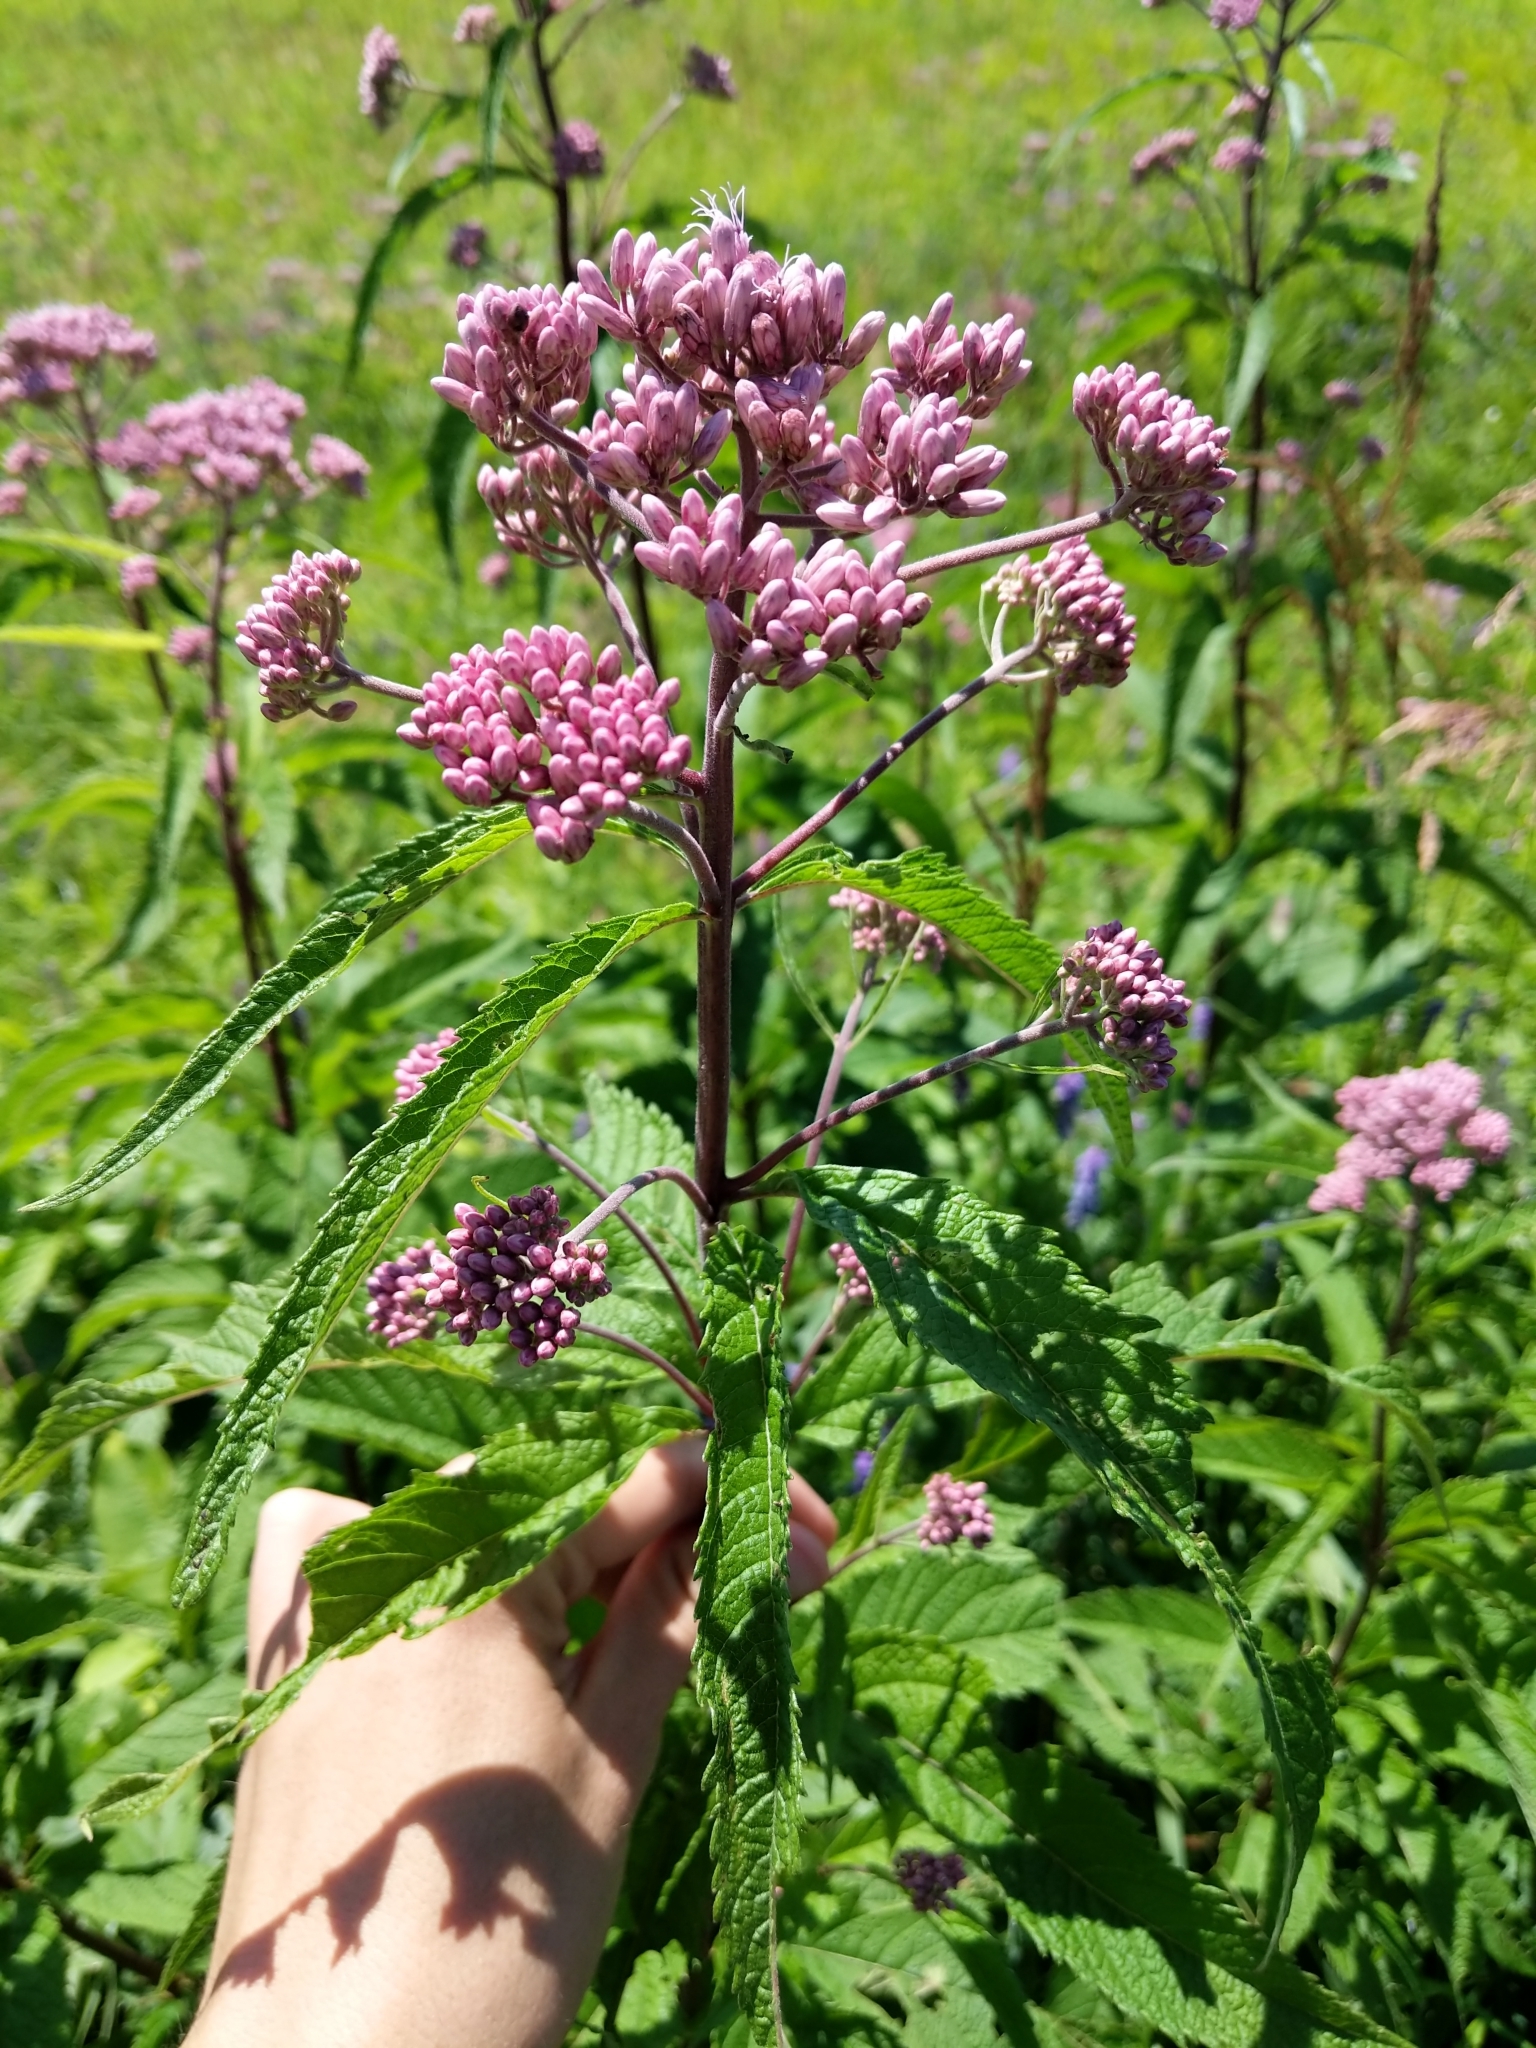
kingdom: Plantae
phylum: Tracheophyta
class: Magnoliopsida
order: Asterales
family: Asteraceae
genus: Eutrochium
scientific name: Eutrochium maculatum
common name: Spotted joe pye weed
